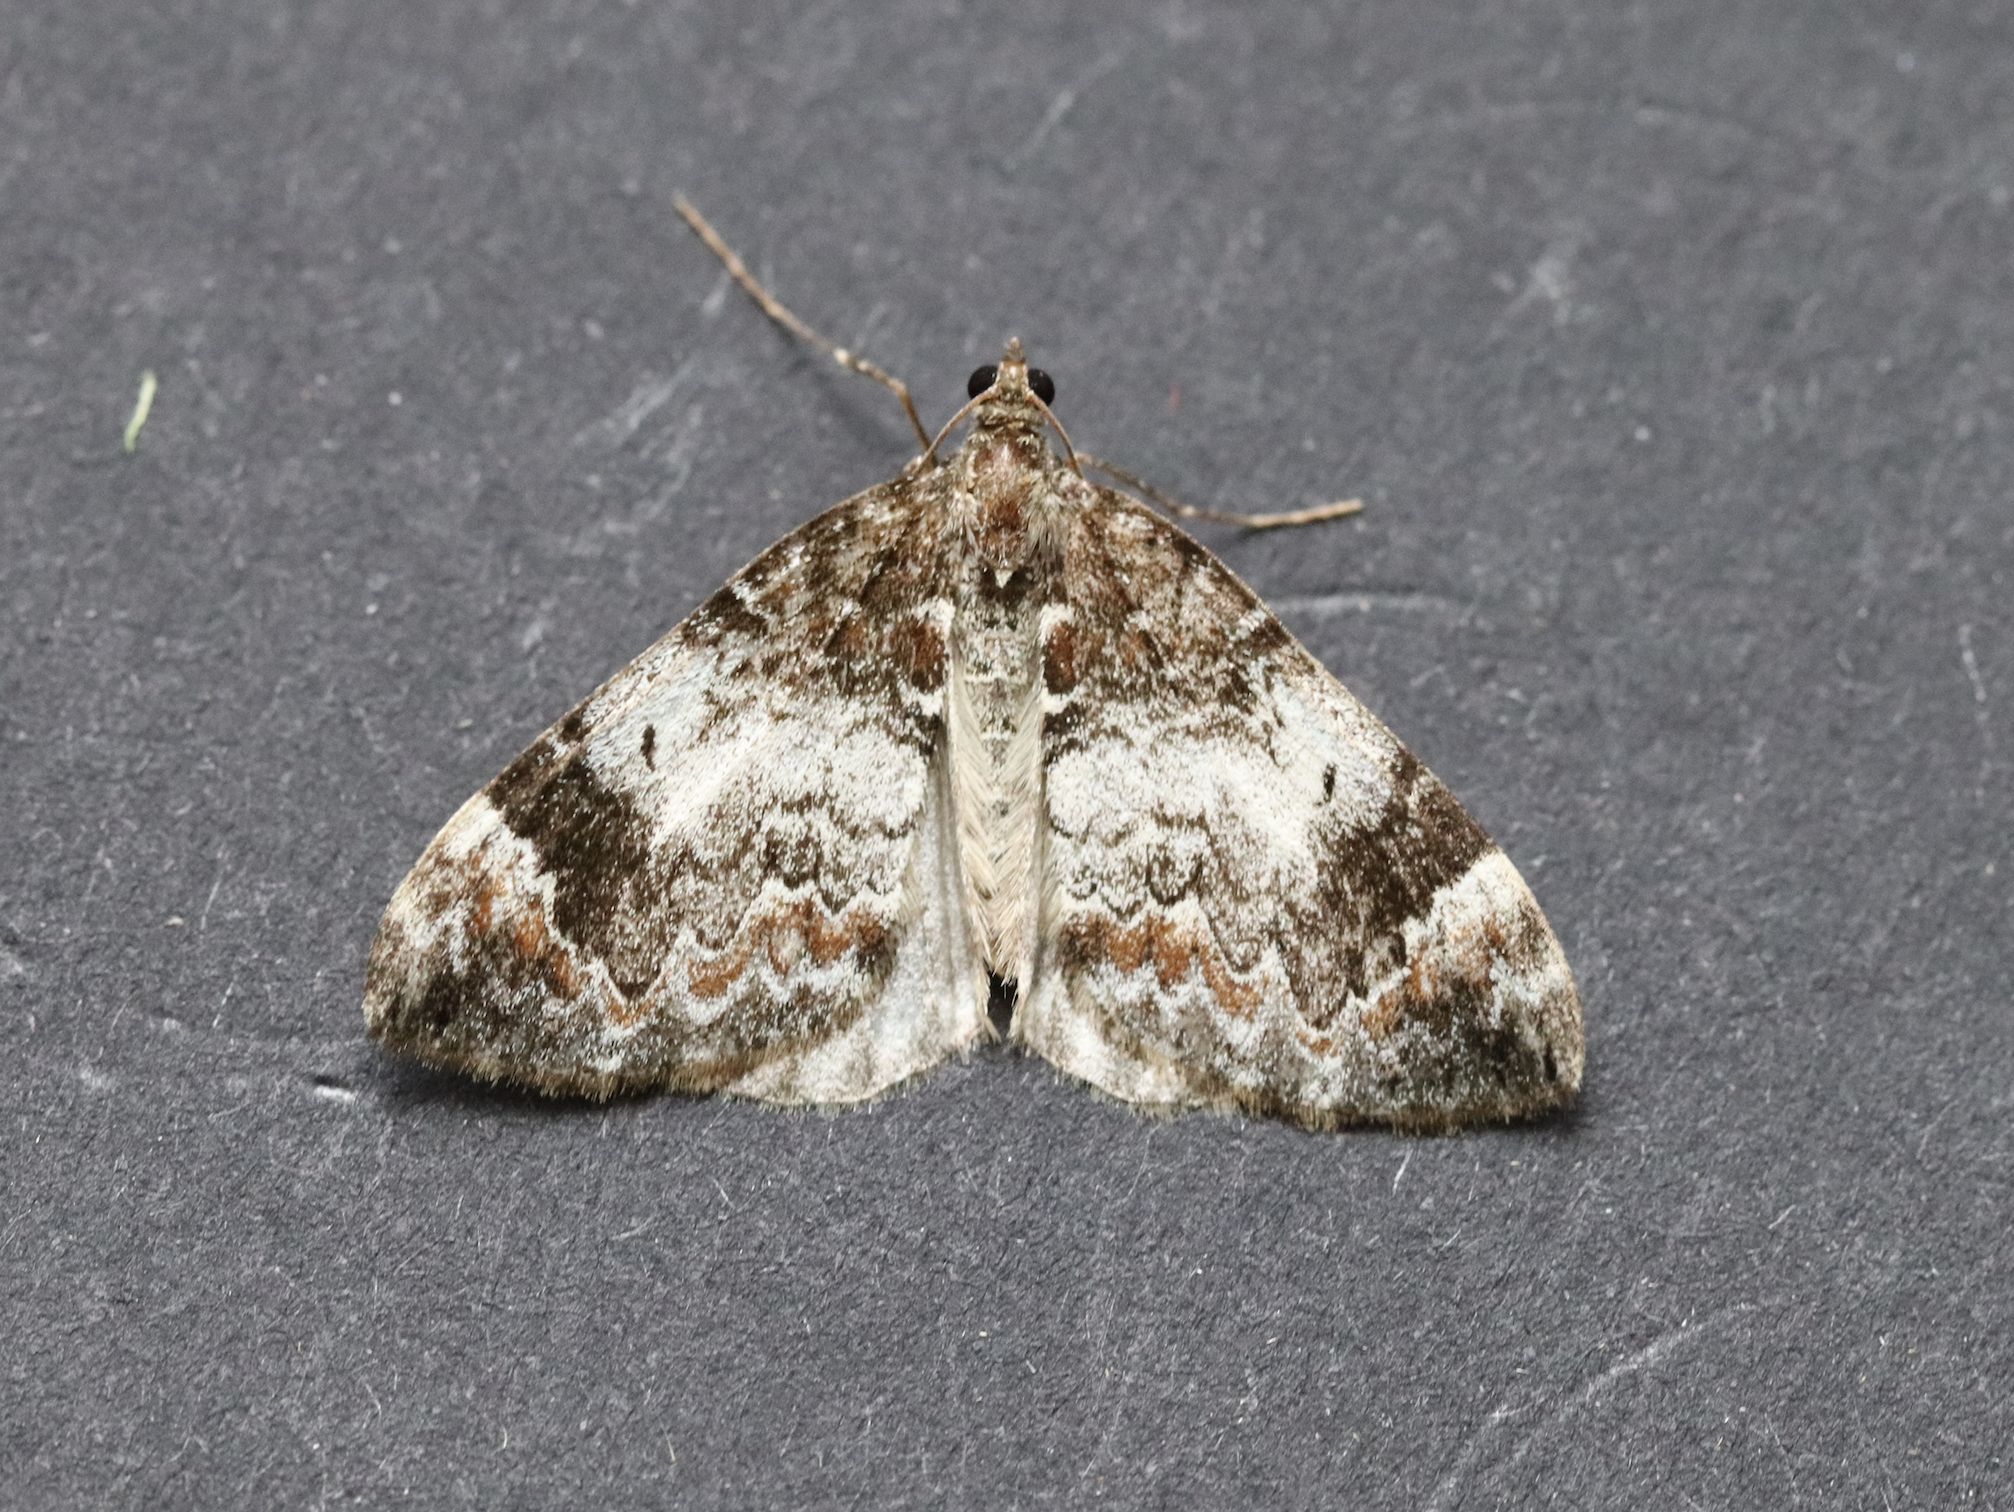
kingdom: Animalia
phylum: Arthropoda
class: Insecta
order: Lepidoptera
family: Geometridae
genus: Dysstroma
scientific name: Dysstroma truncata
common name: Common marbled carpet
